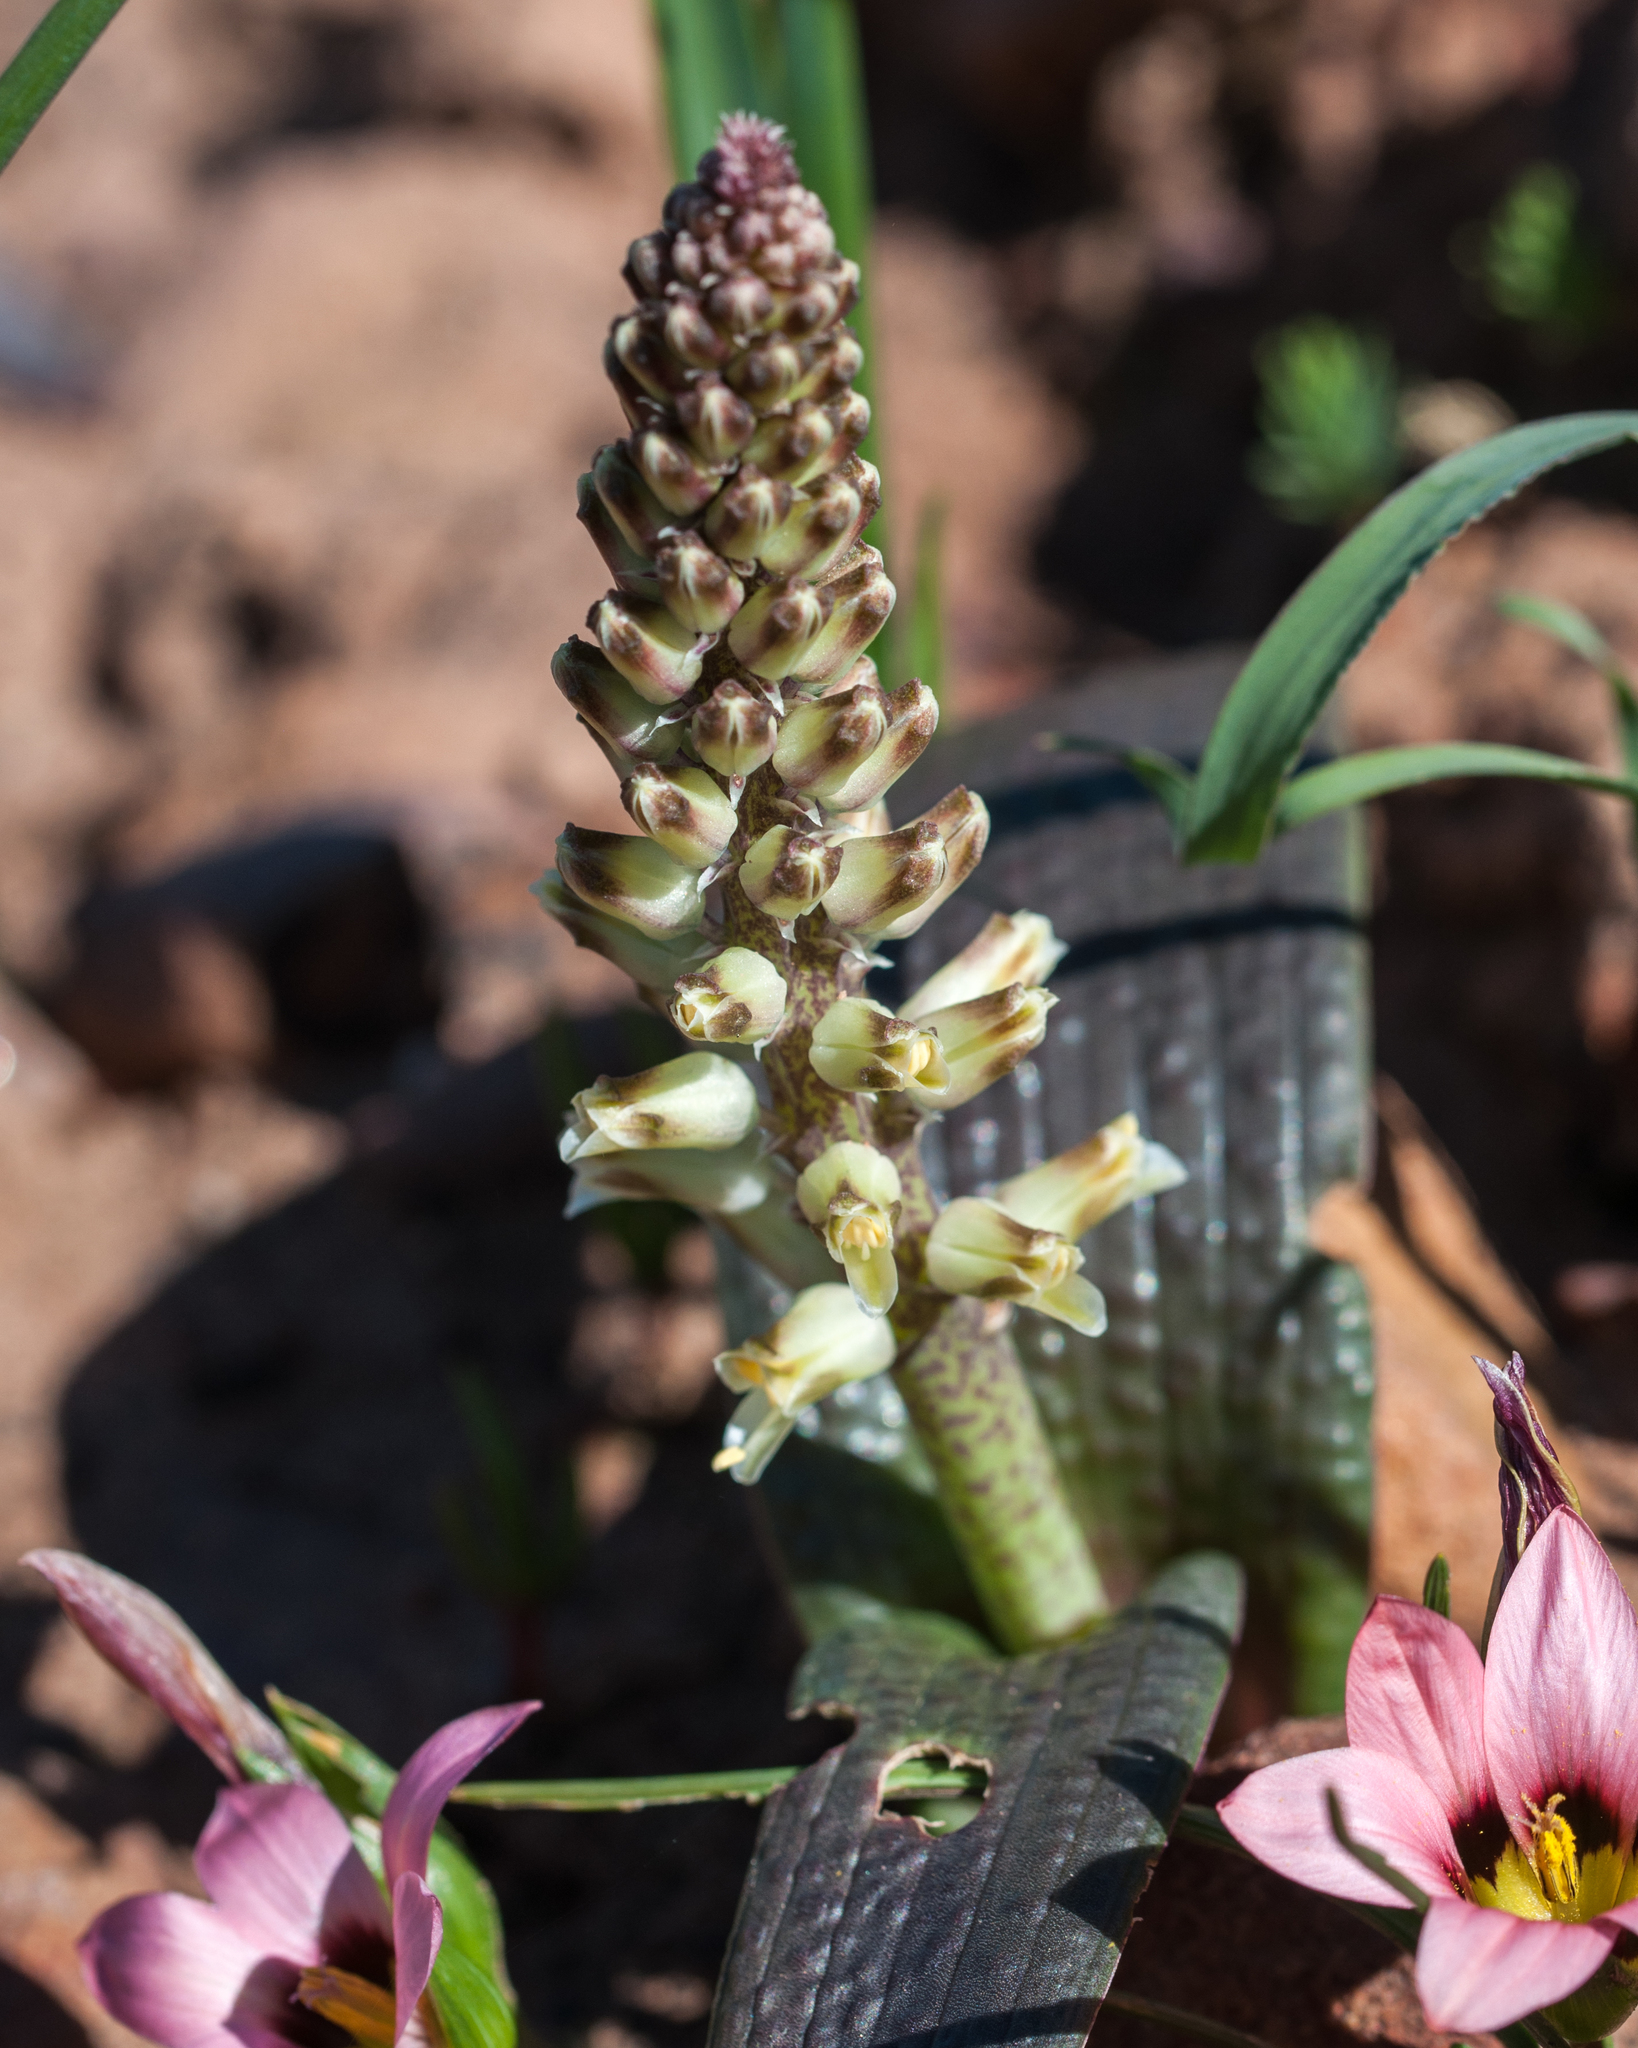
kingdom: Plantae
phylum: Tracheophyta
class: Liliopsida
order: Asparagales
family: Asparagaceae
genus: Lachenalia
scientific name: Lachenalia pallida
